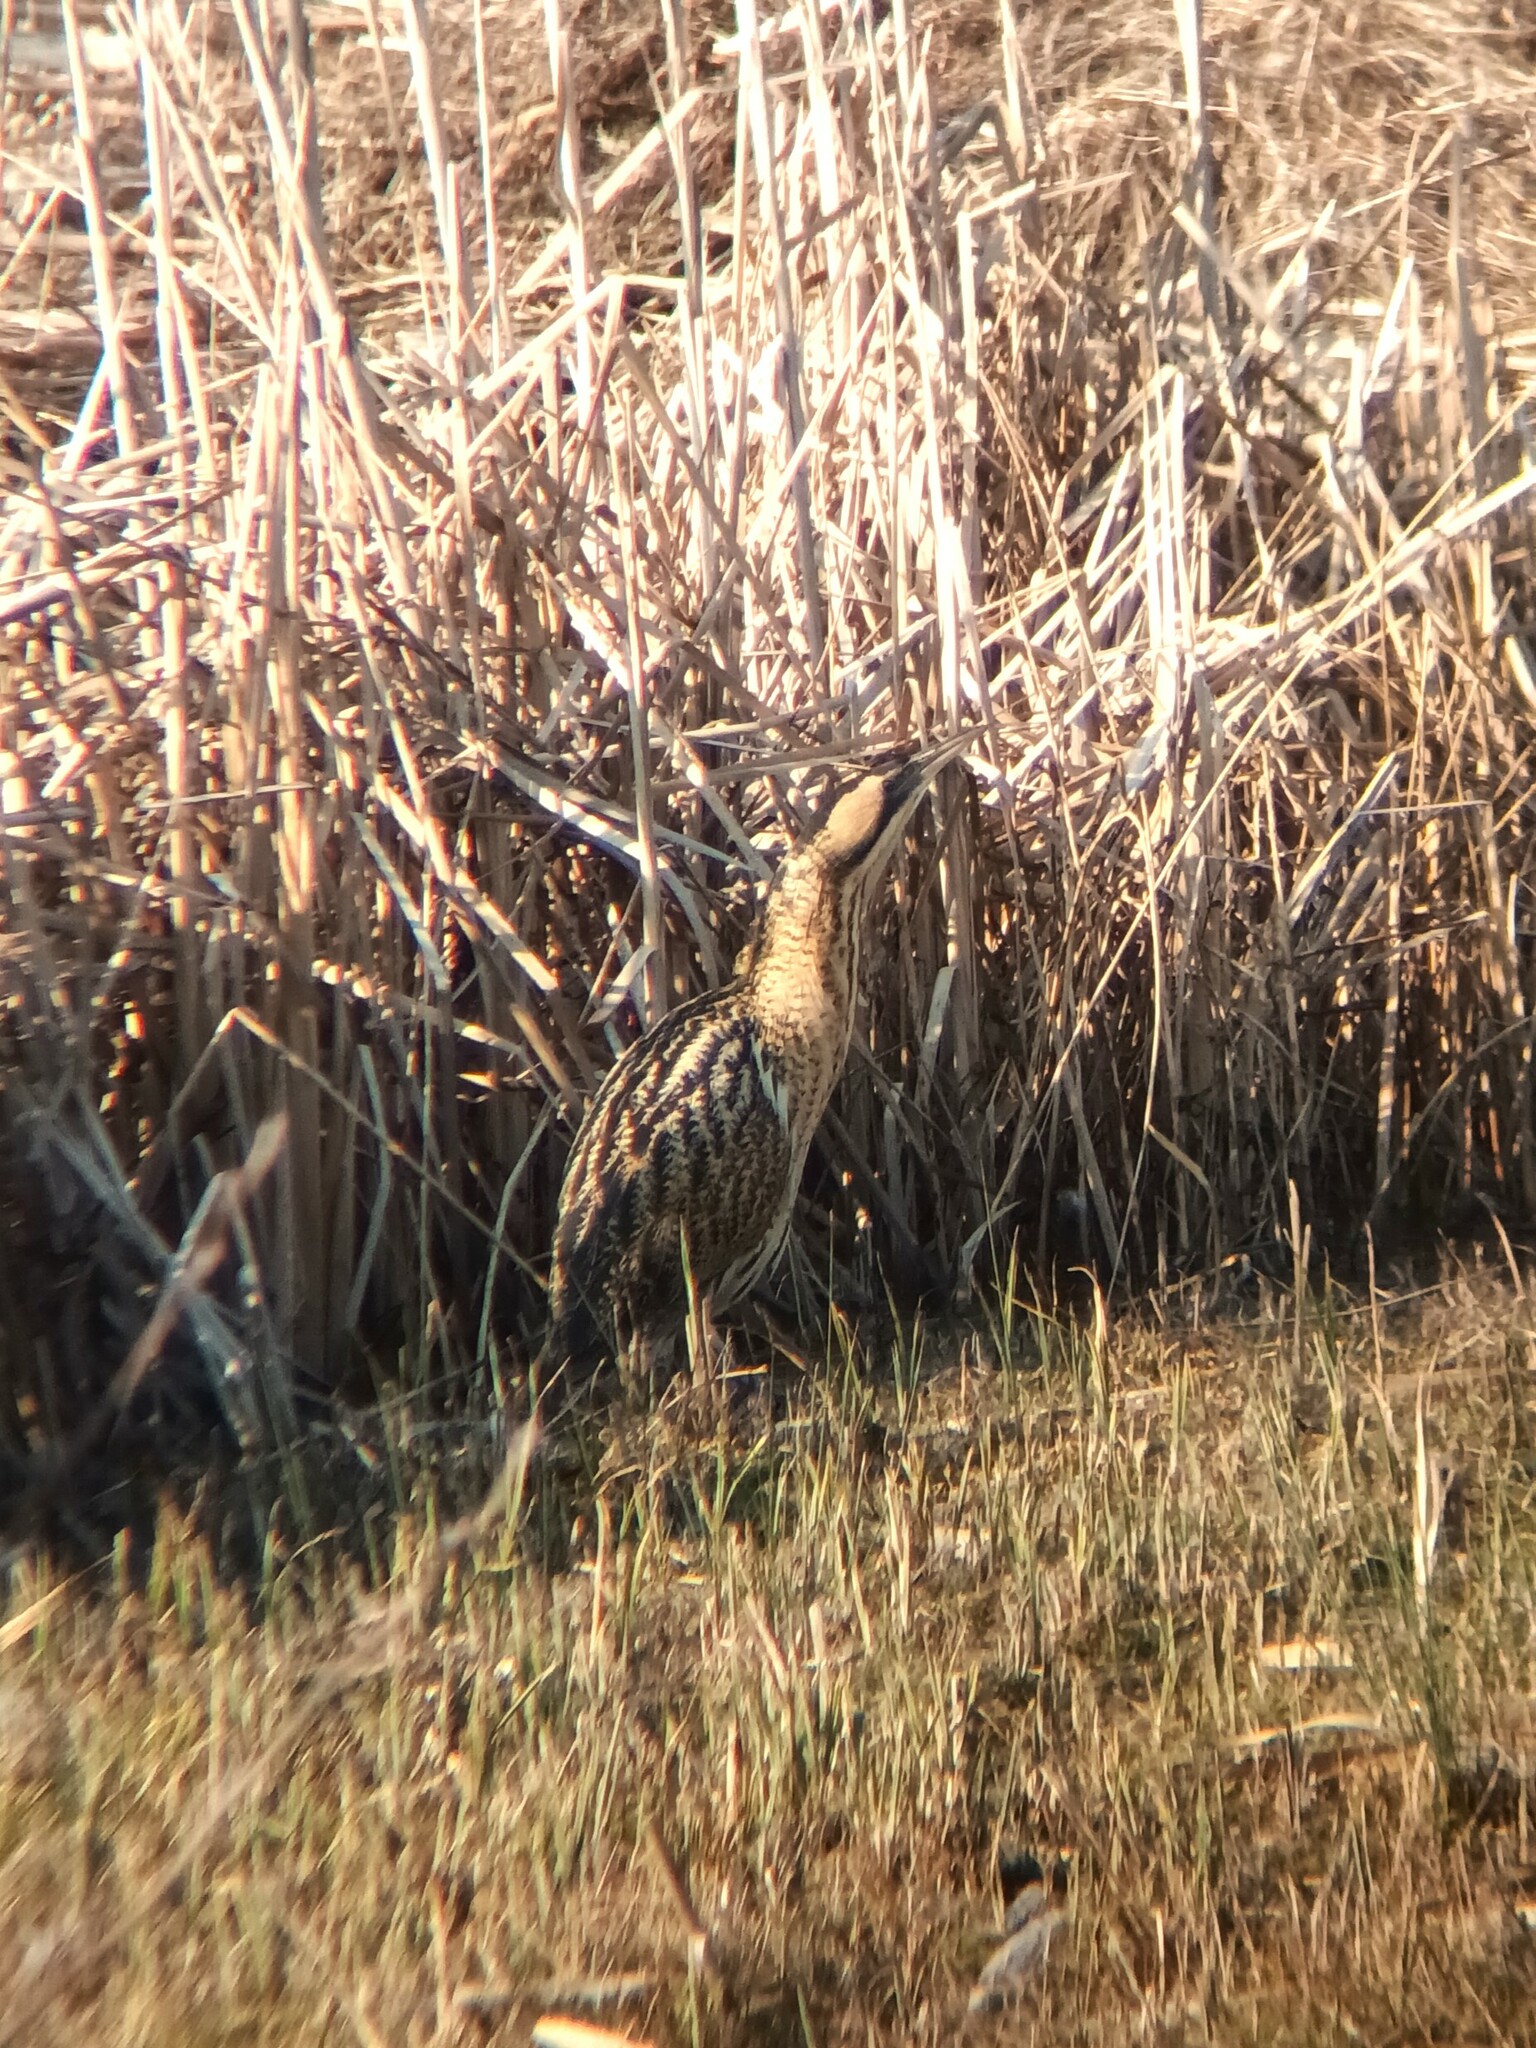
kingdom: Animalia
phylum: Chordata
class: Aves
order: Pelecaniformes
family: Ardeidae
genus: Botaurus
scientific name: Botaurus stellaris
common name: Eurasian bittern
